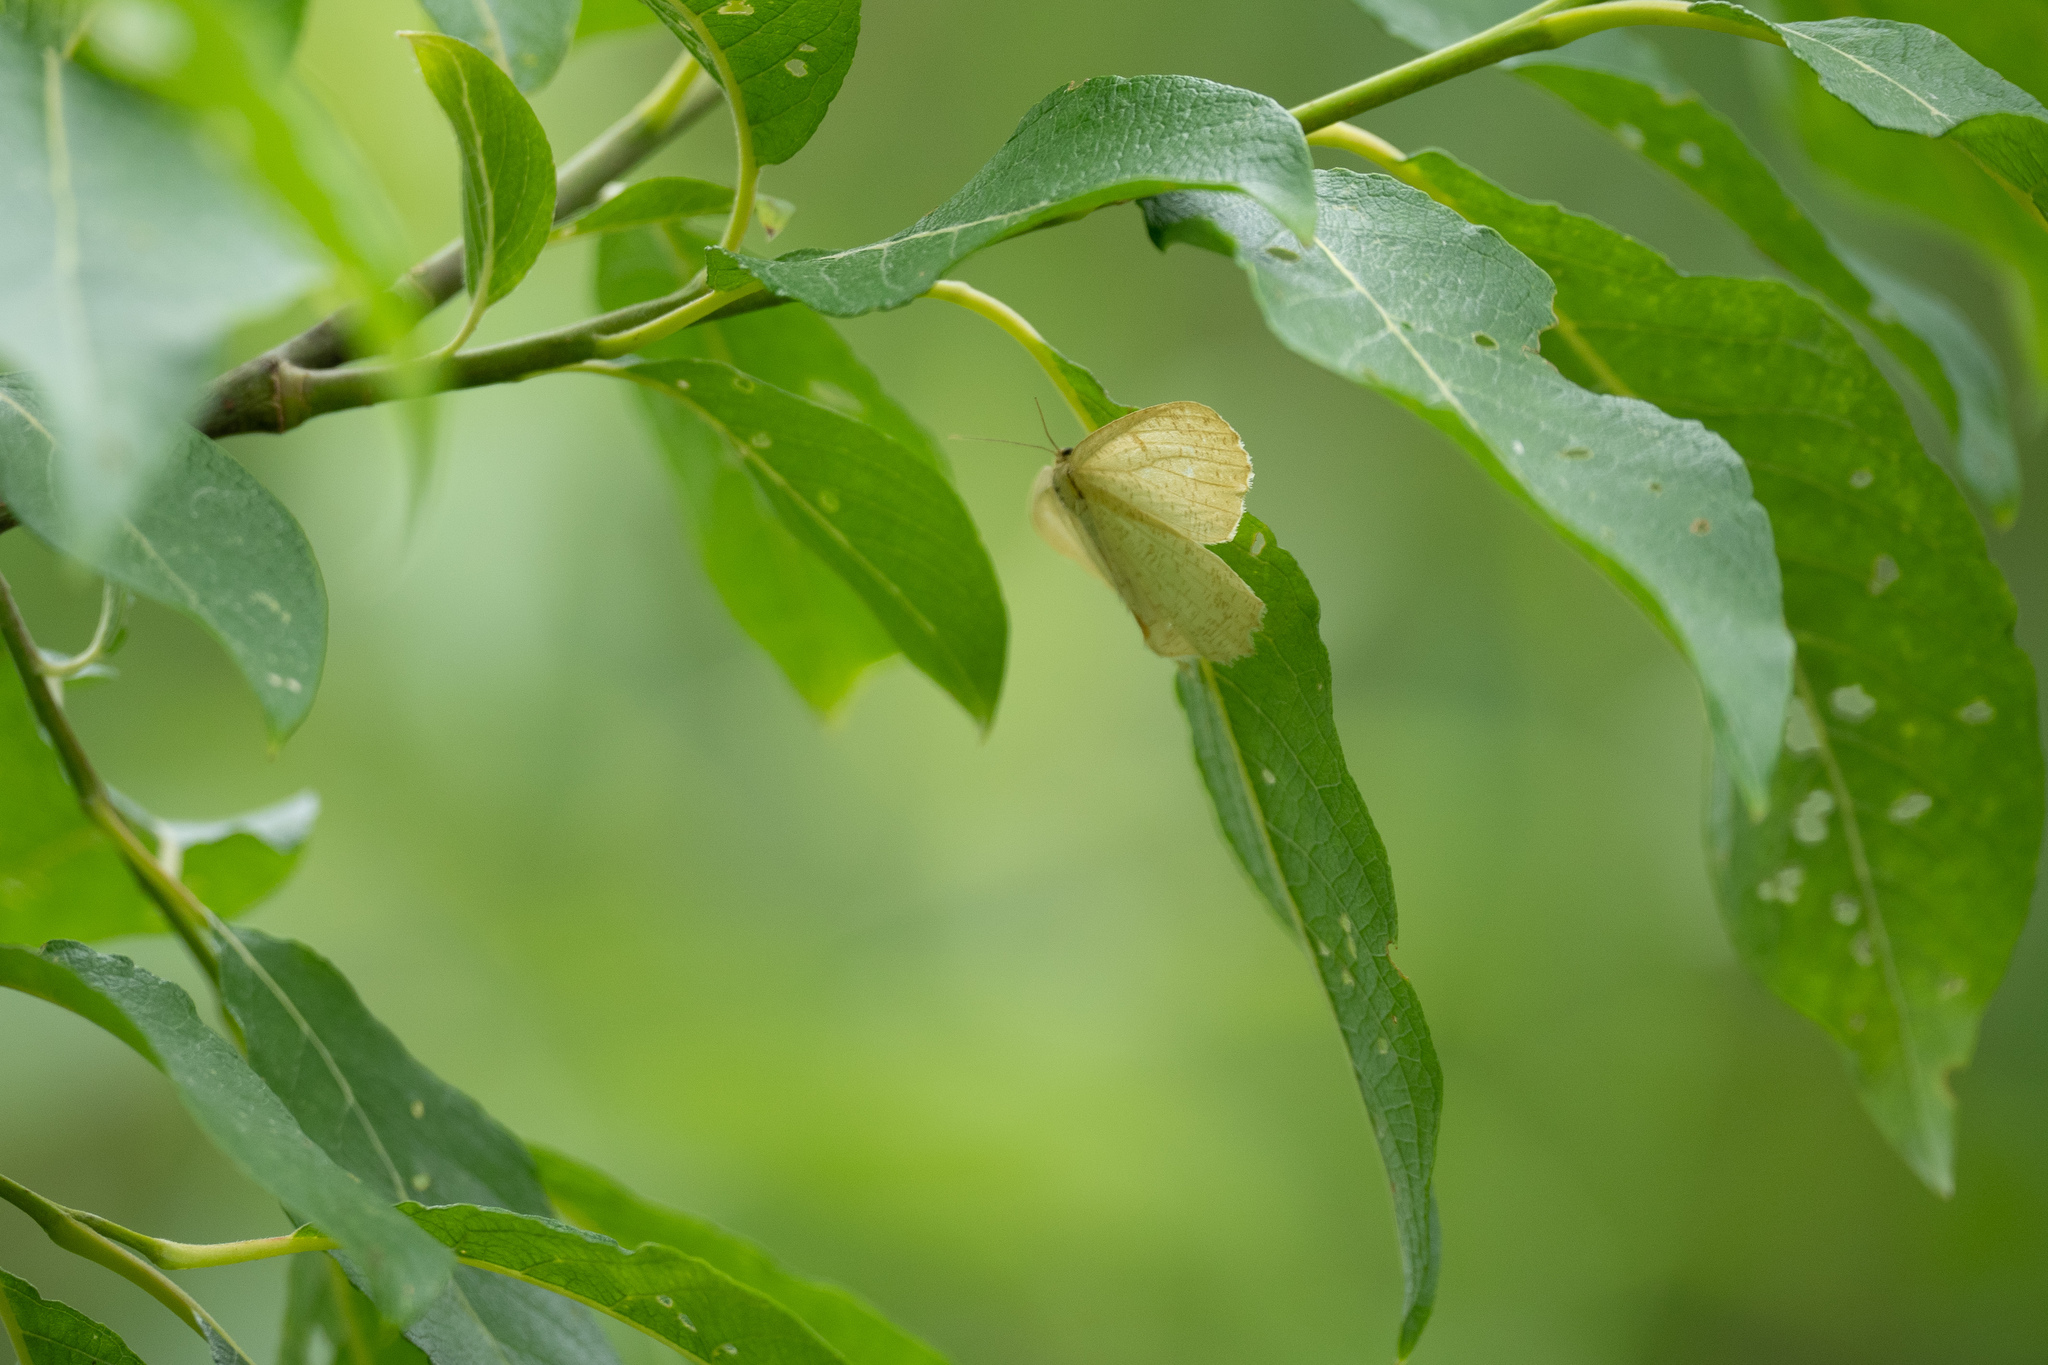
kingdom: Animalia
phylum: Arthropoda
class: Insecta
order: Lepidoptera
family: Geometridae
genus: Angerona
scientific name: Angerona prunaria
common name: Orange moth
